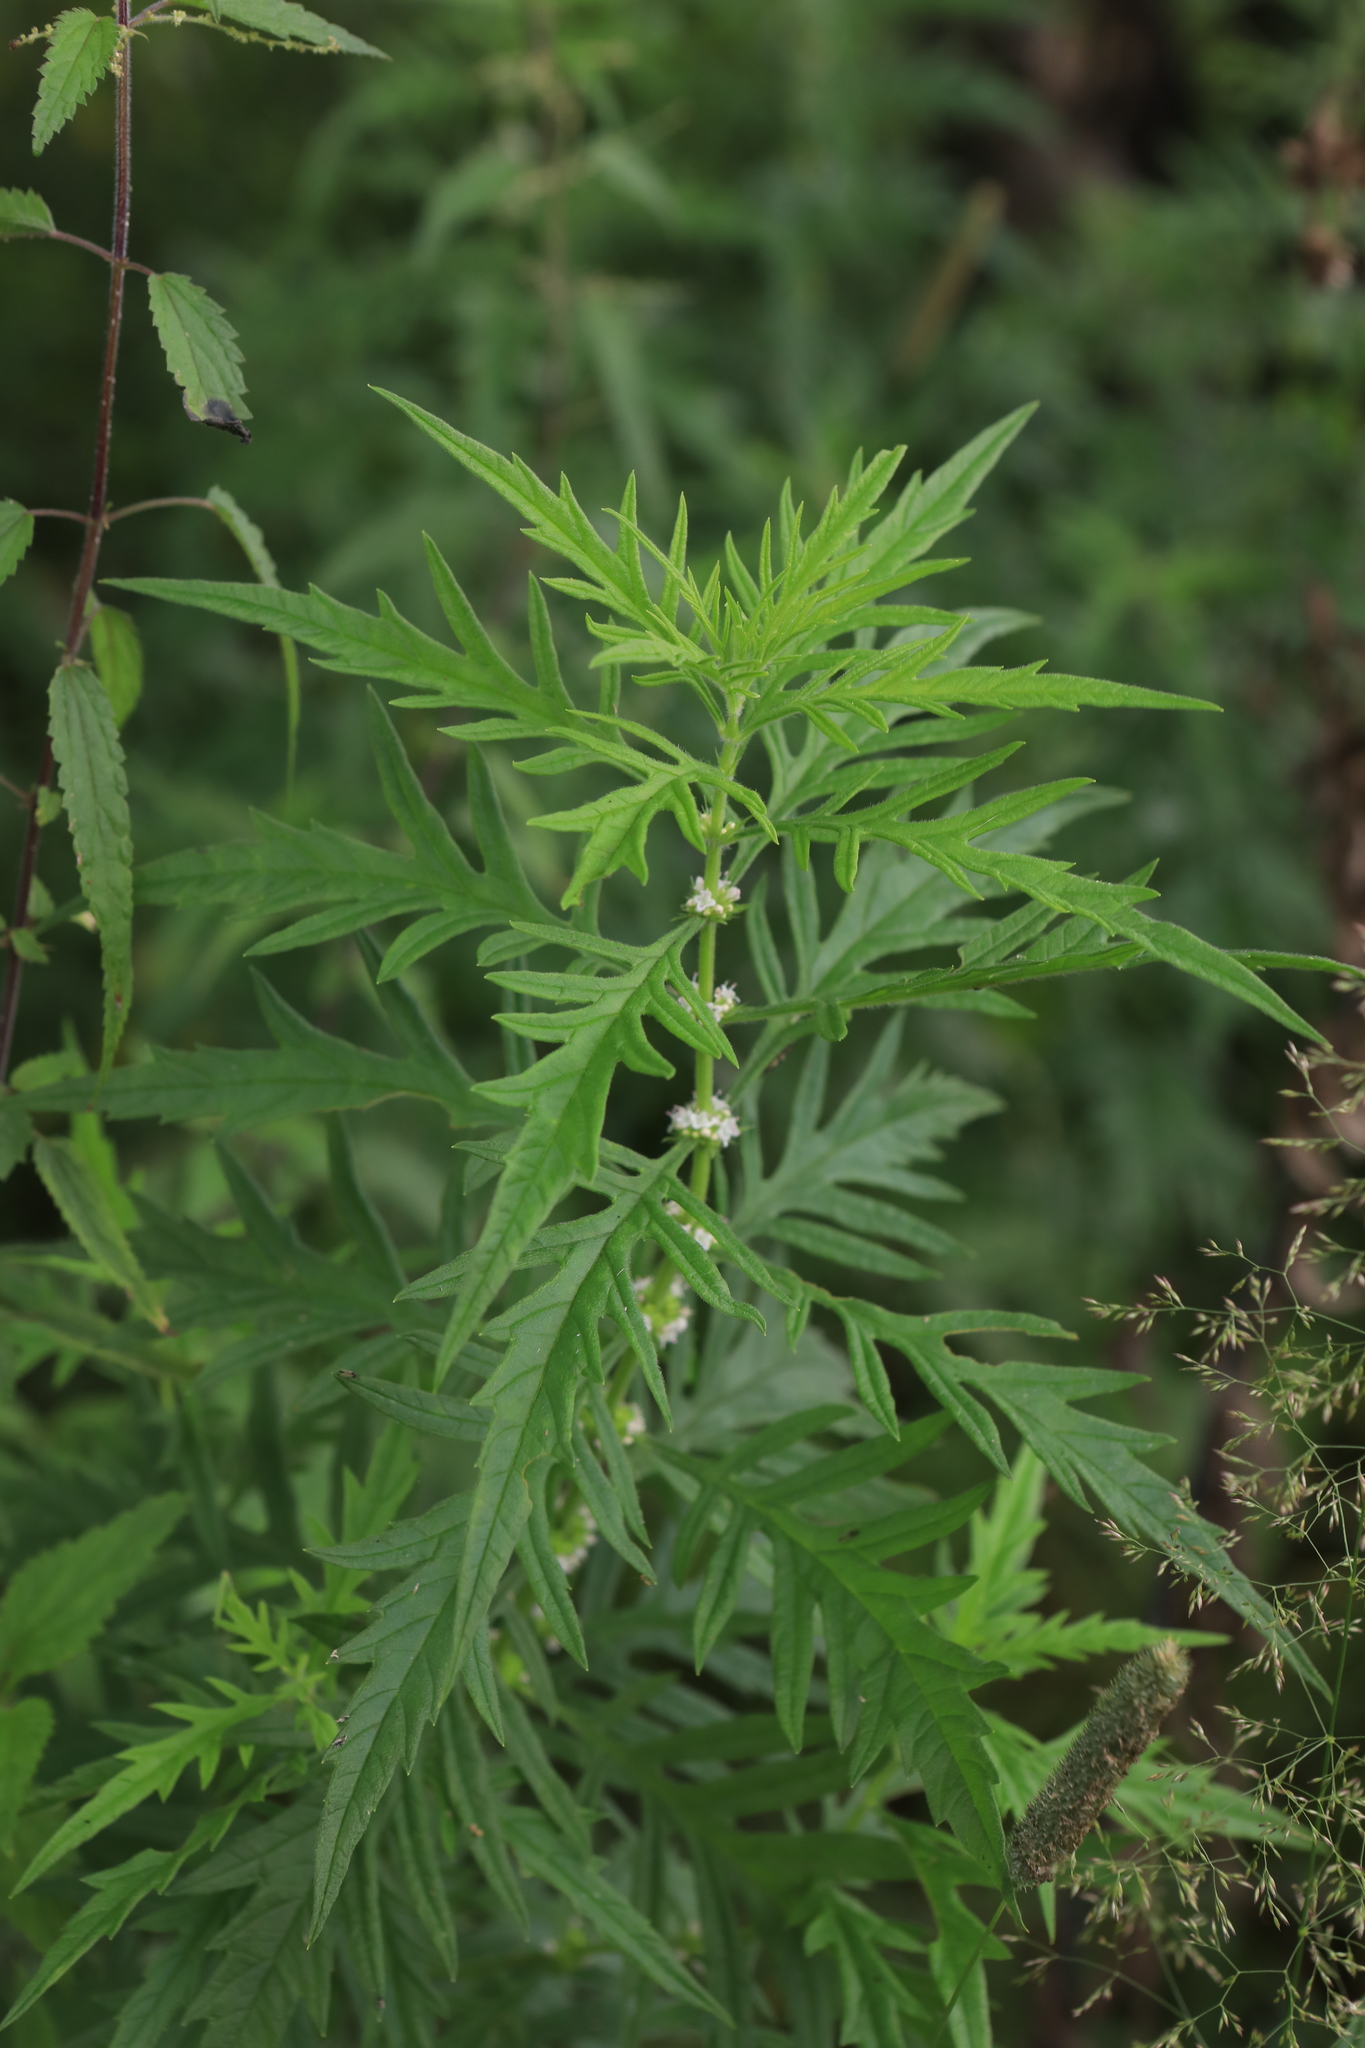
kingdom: Plantae
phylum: Tracheophyta
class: Magnoliopsida
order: Lamiales
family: Lamiaceae
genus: Lycopus
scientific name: Lycopus exaltatus
